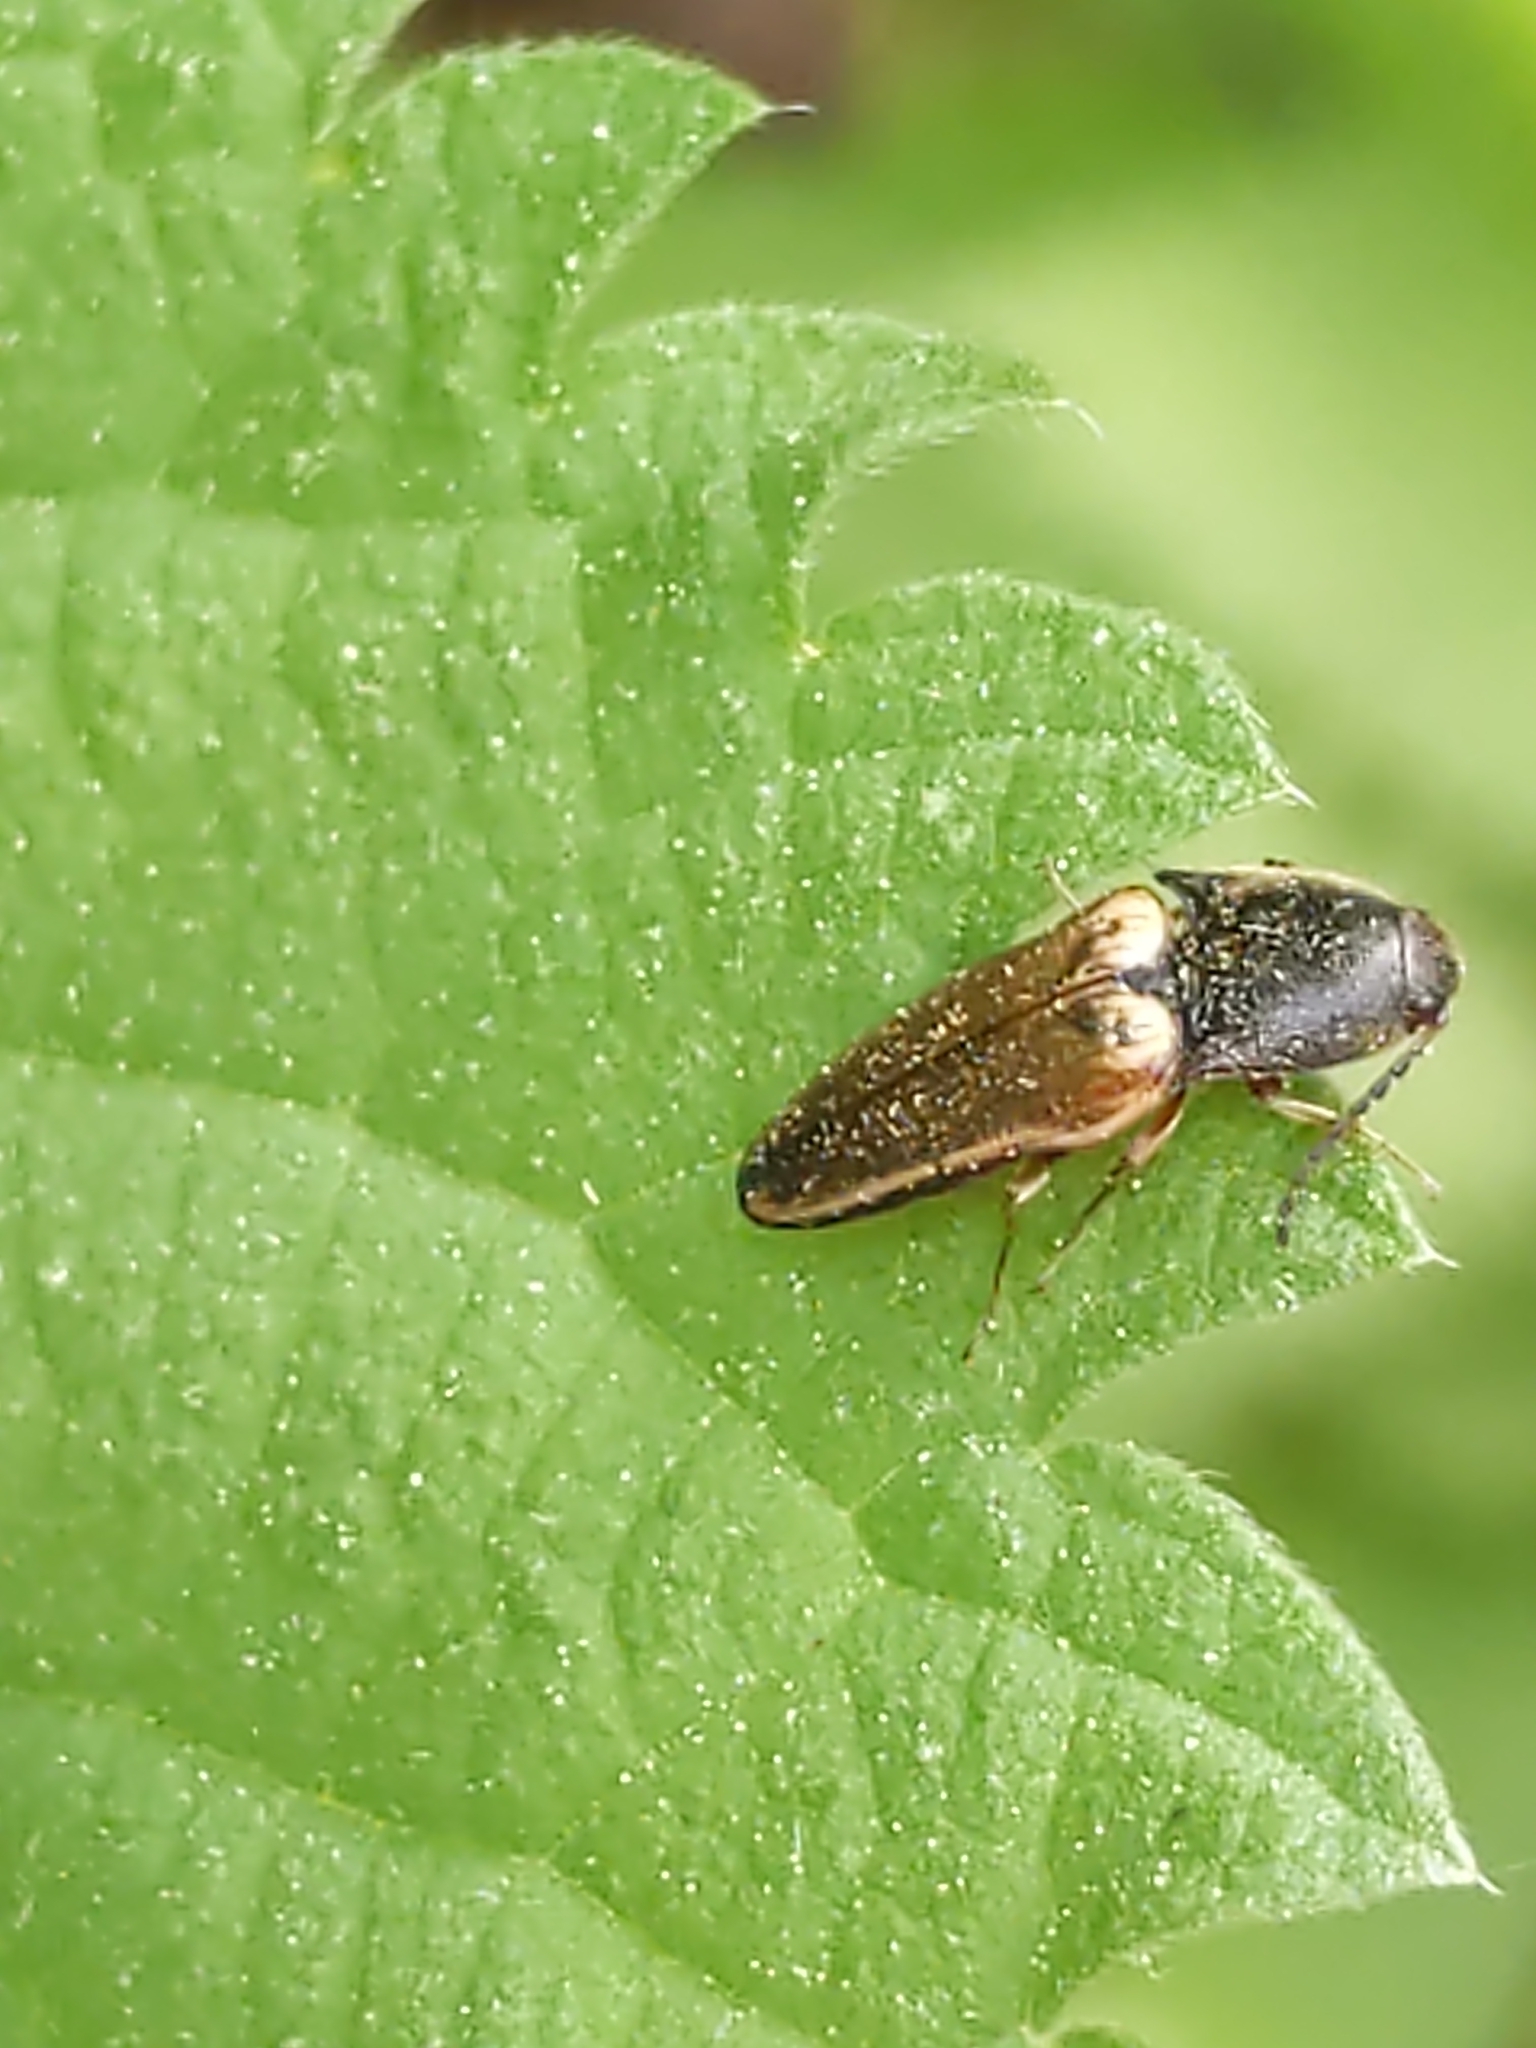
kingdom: Animalia
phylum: Arthropoda
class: Insecta
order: Coleoptera
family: Elateridae
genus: Ampedus
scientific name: Ampedus nigricollis
